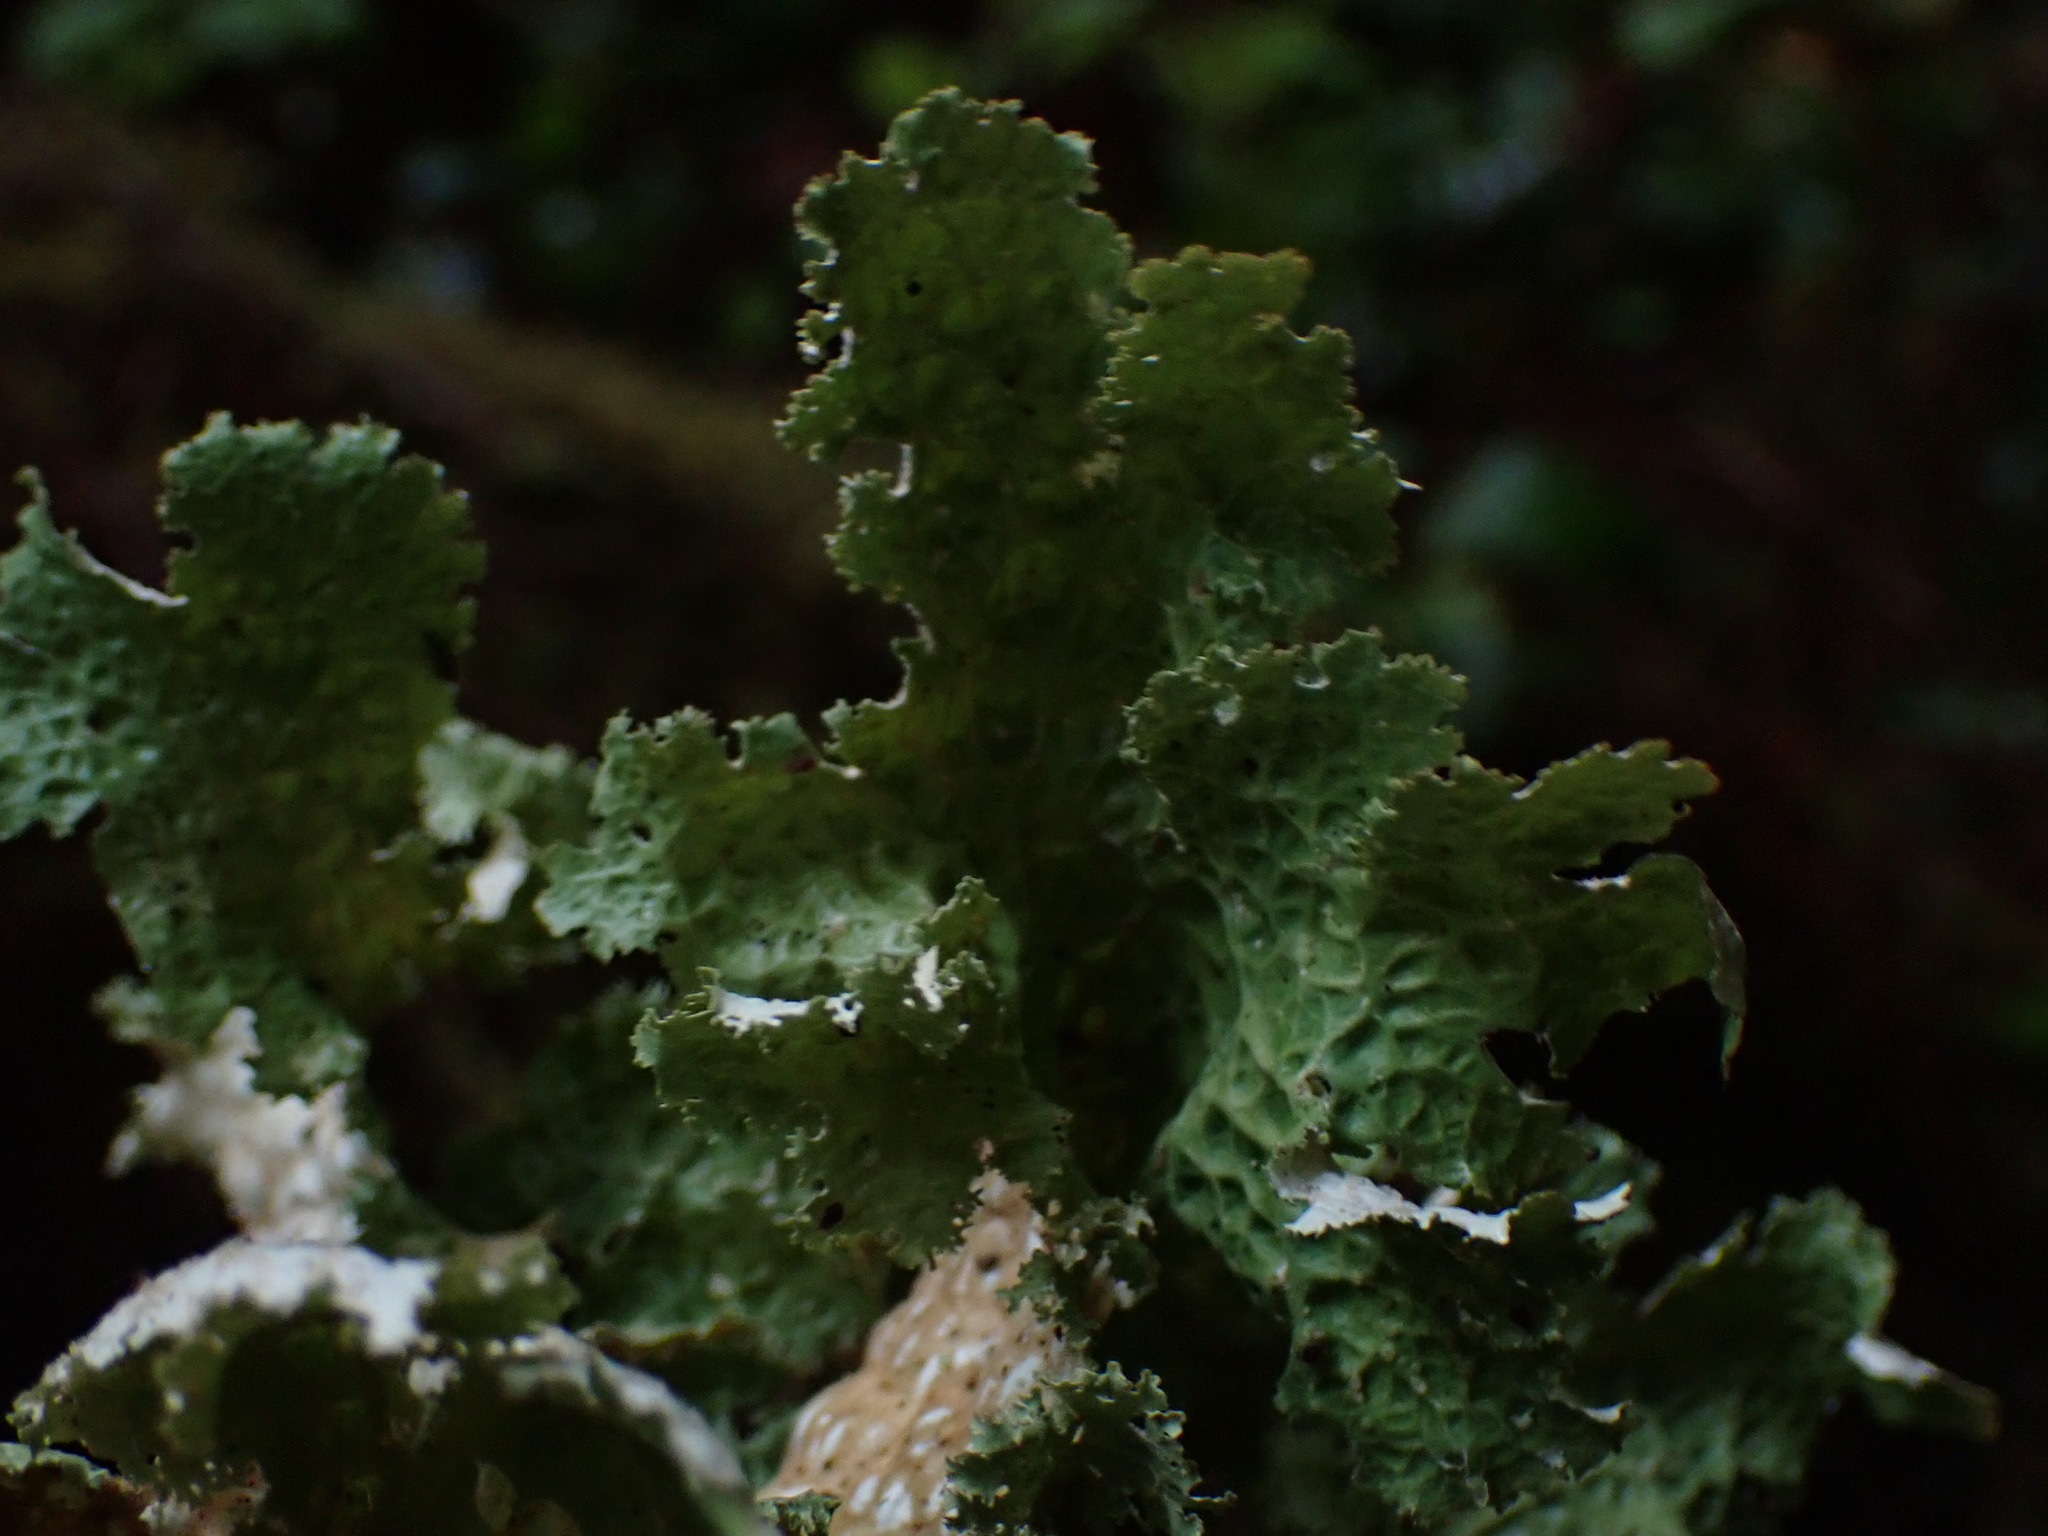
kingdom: Fungi
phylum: Ascomycota
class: Lecanoromycetes
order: Peltigerales
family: Lobariaceae
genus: Lobaria
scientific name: Lobaria oregana
